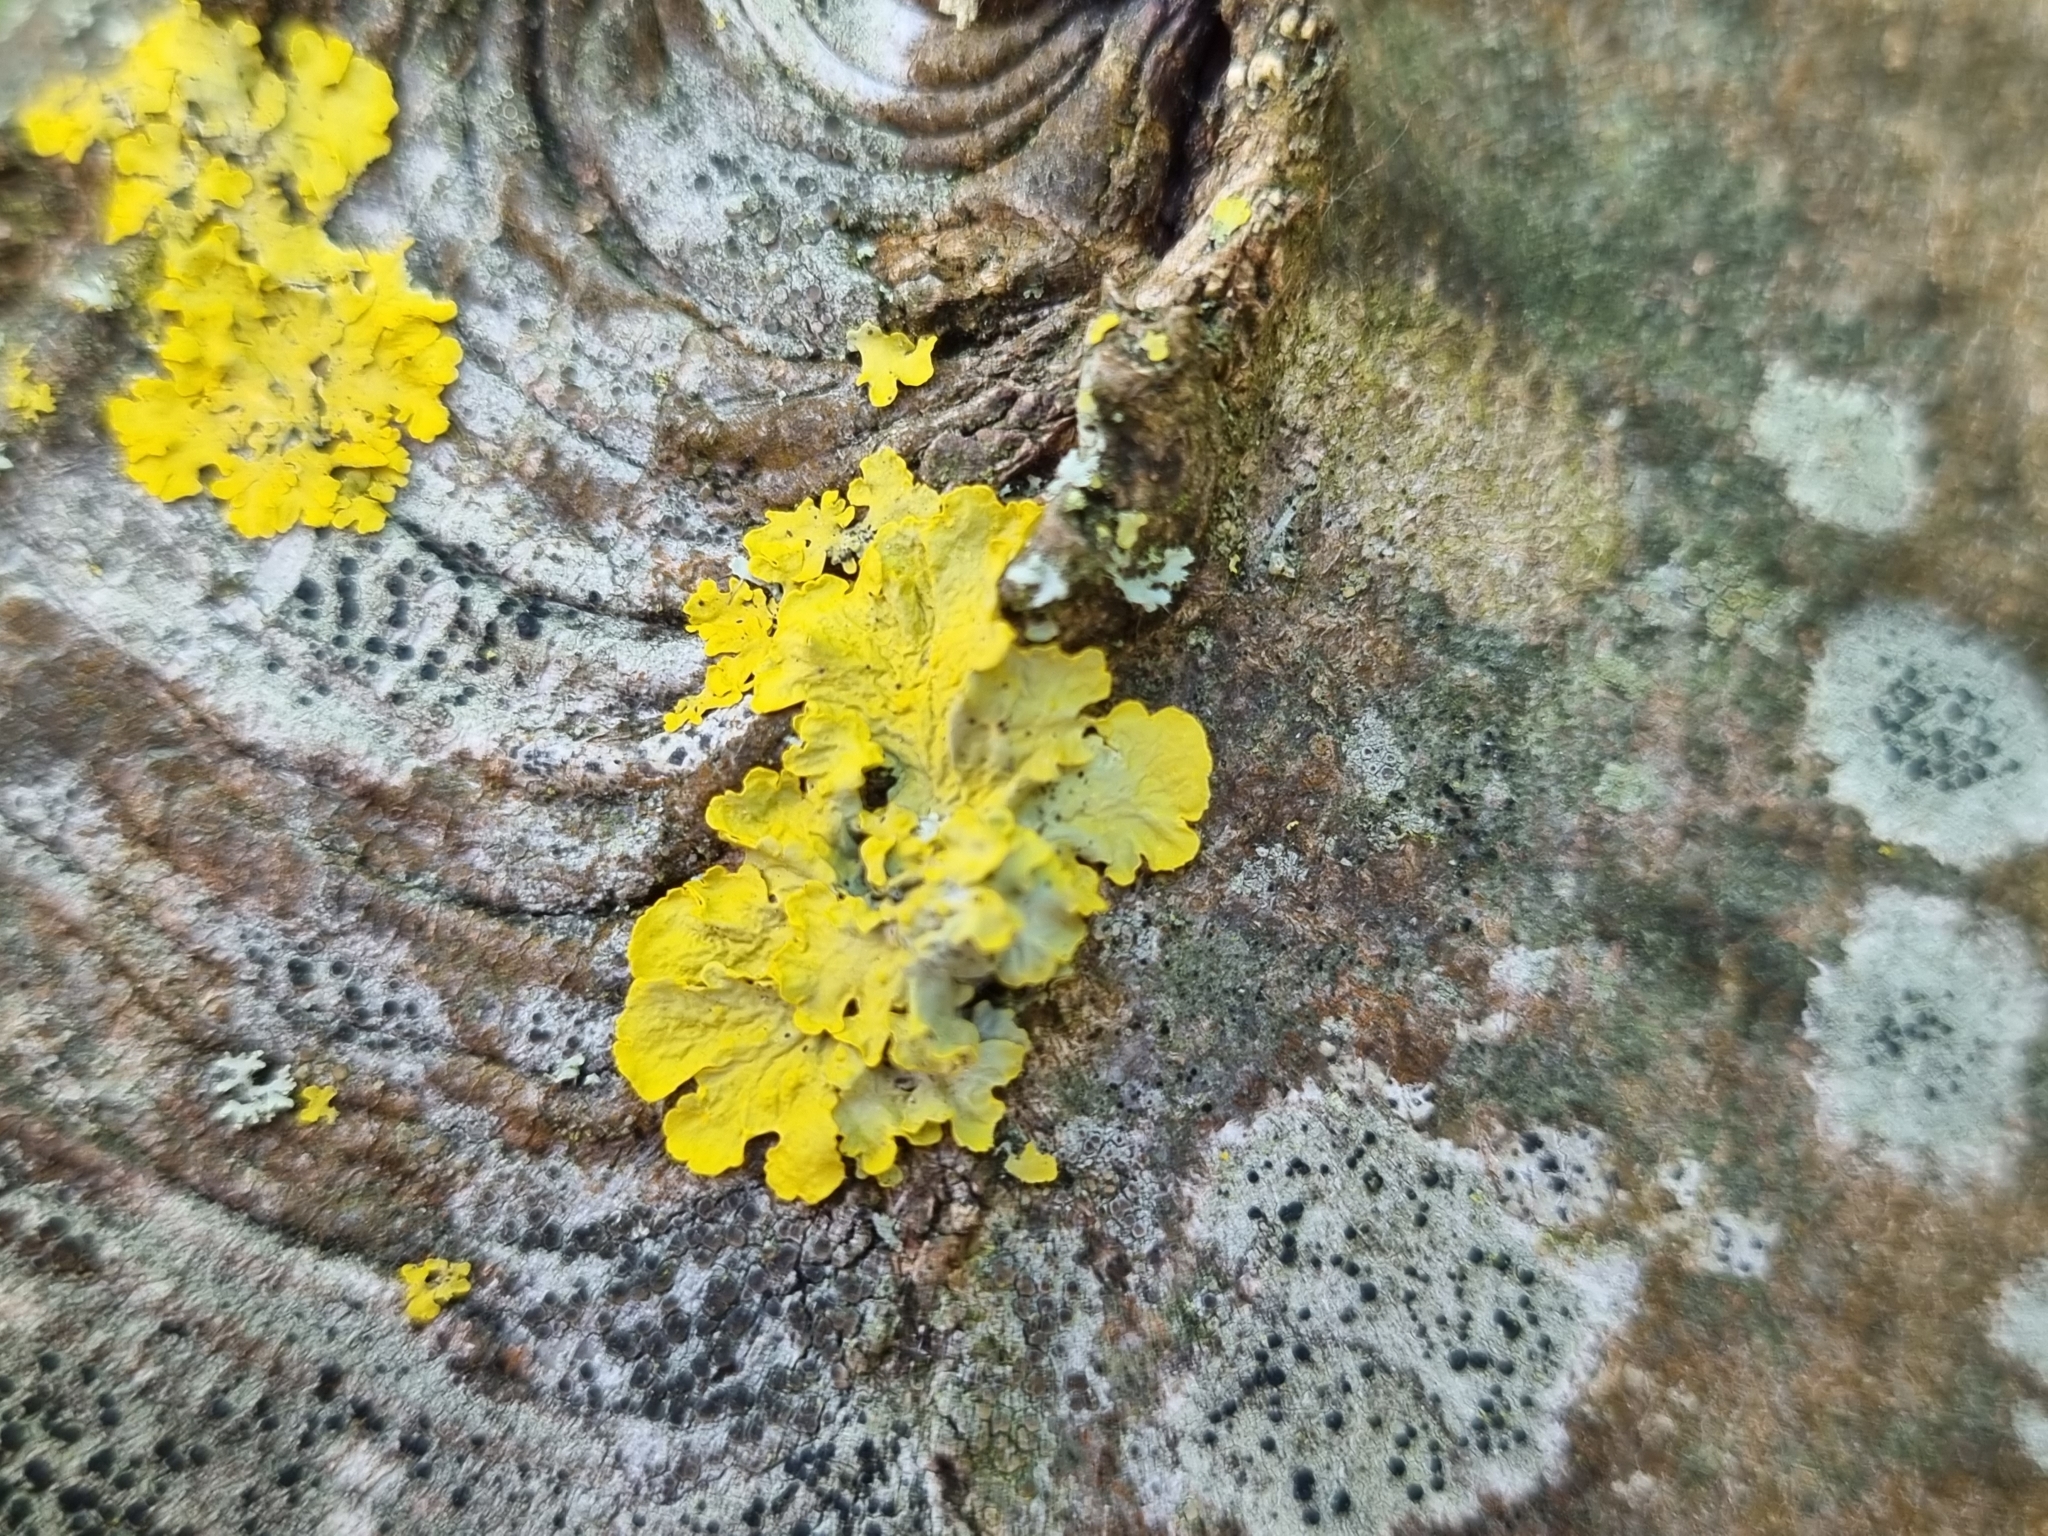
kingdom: Fungi
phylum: Ascomycota
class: Lecanoromycetes
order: Teloschistales
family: Teloschistaceae
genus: Xanthoria
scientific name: Xanthoria parietina
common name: Common orange lichen
